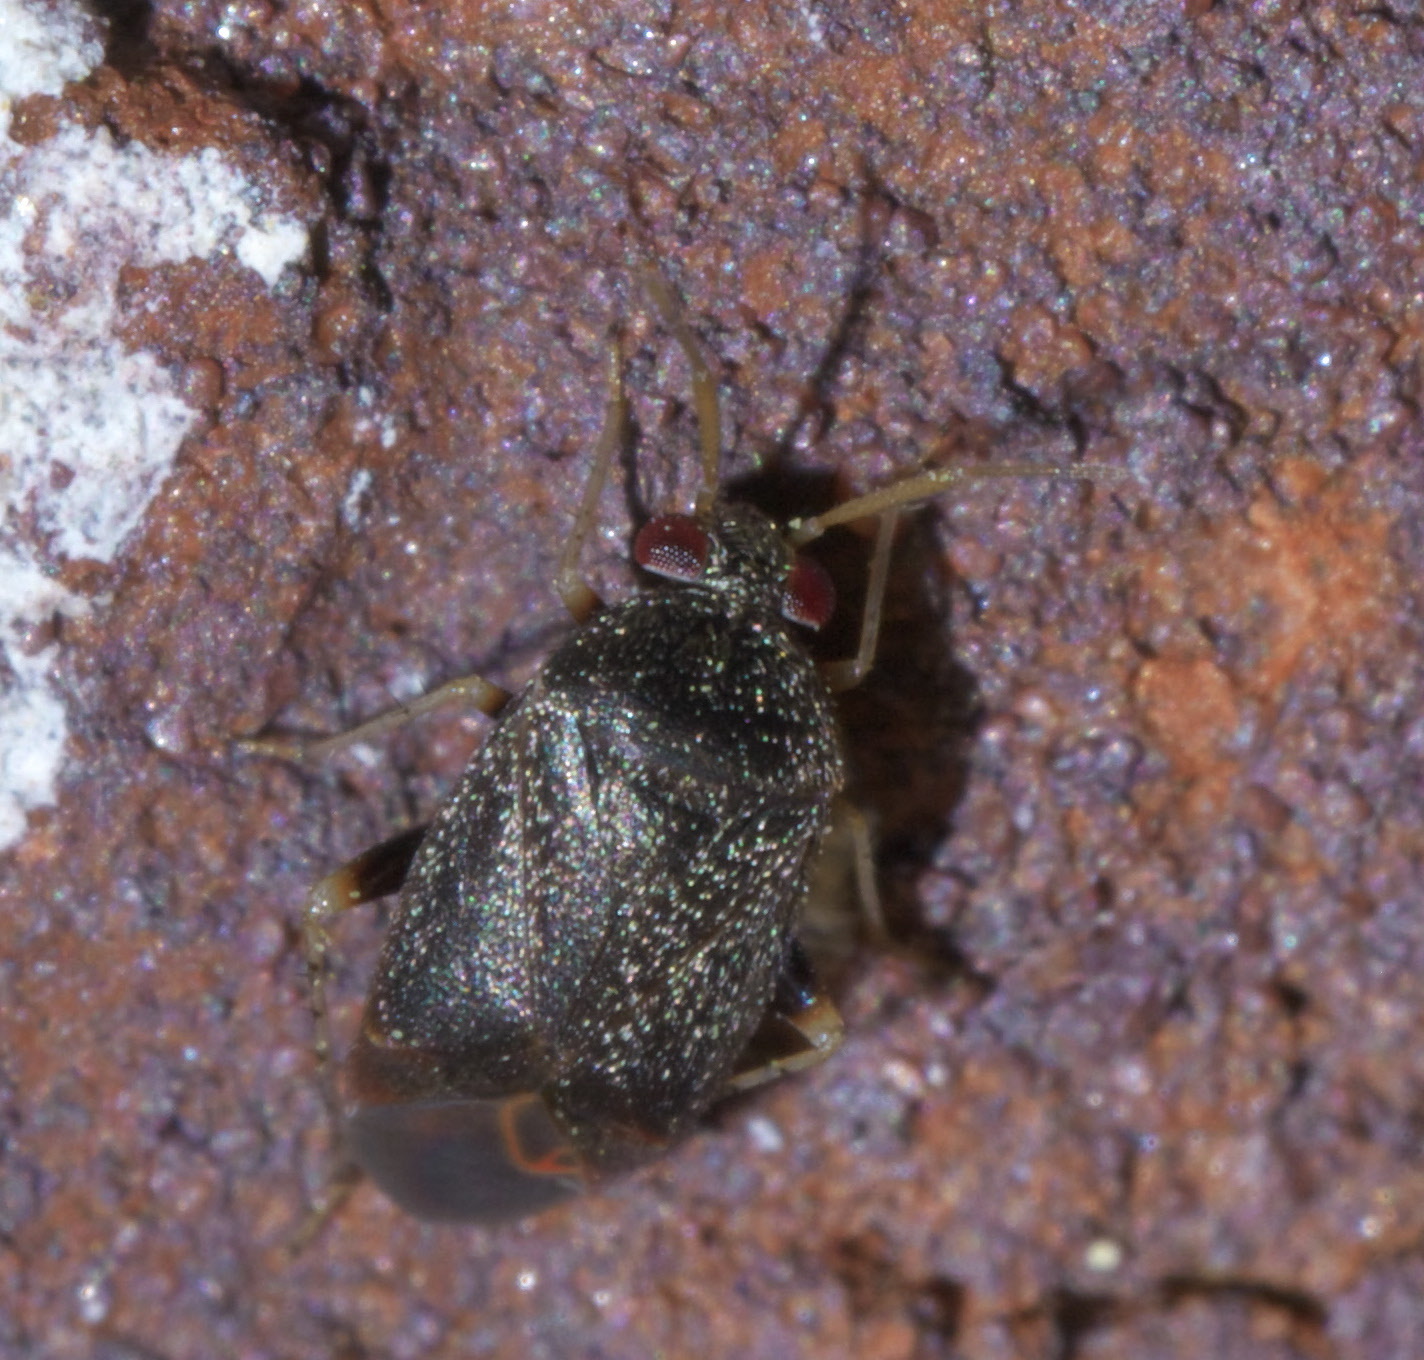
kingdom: Animalia
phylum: Arthropoda
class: Insecta
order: Hemiptera
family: Miridae
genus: Phoenicocoris
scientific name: Phoenicocoris claricornis
